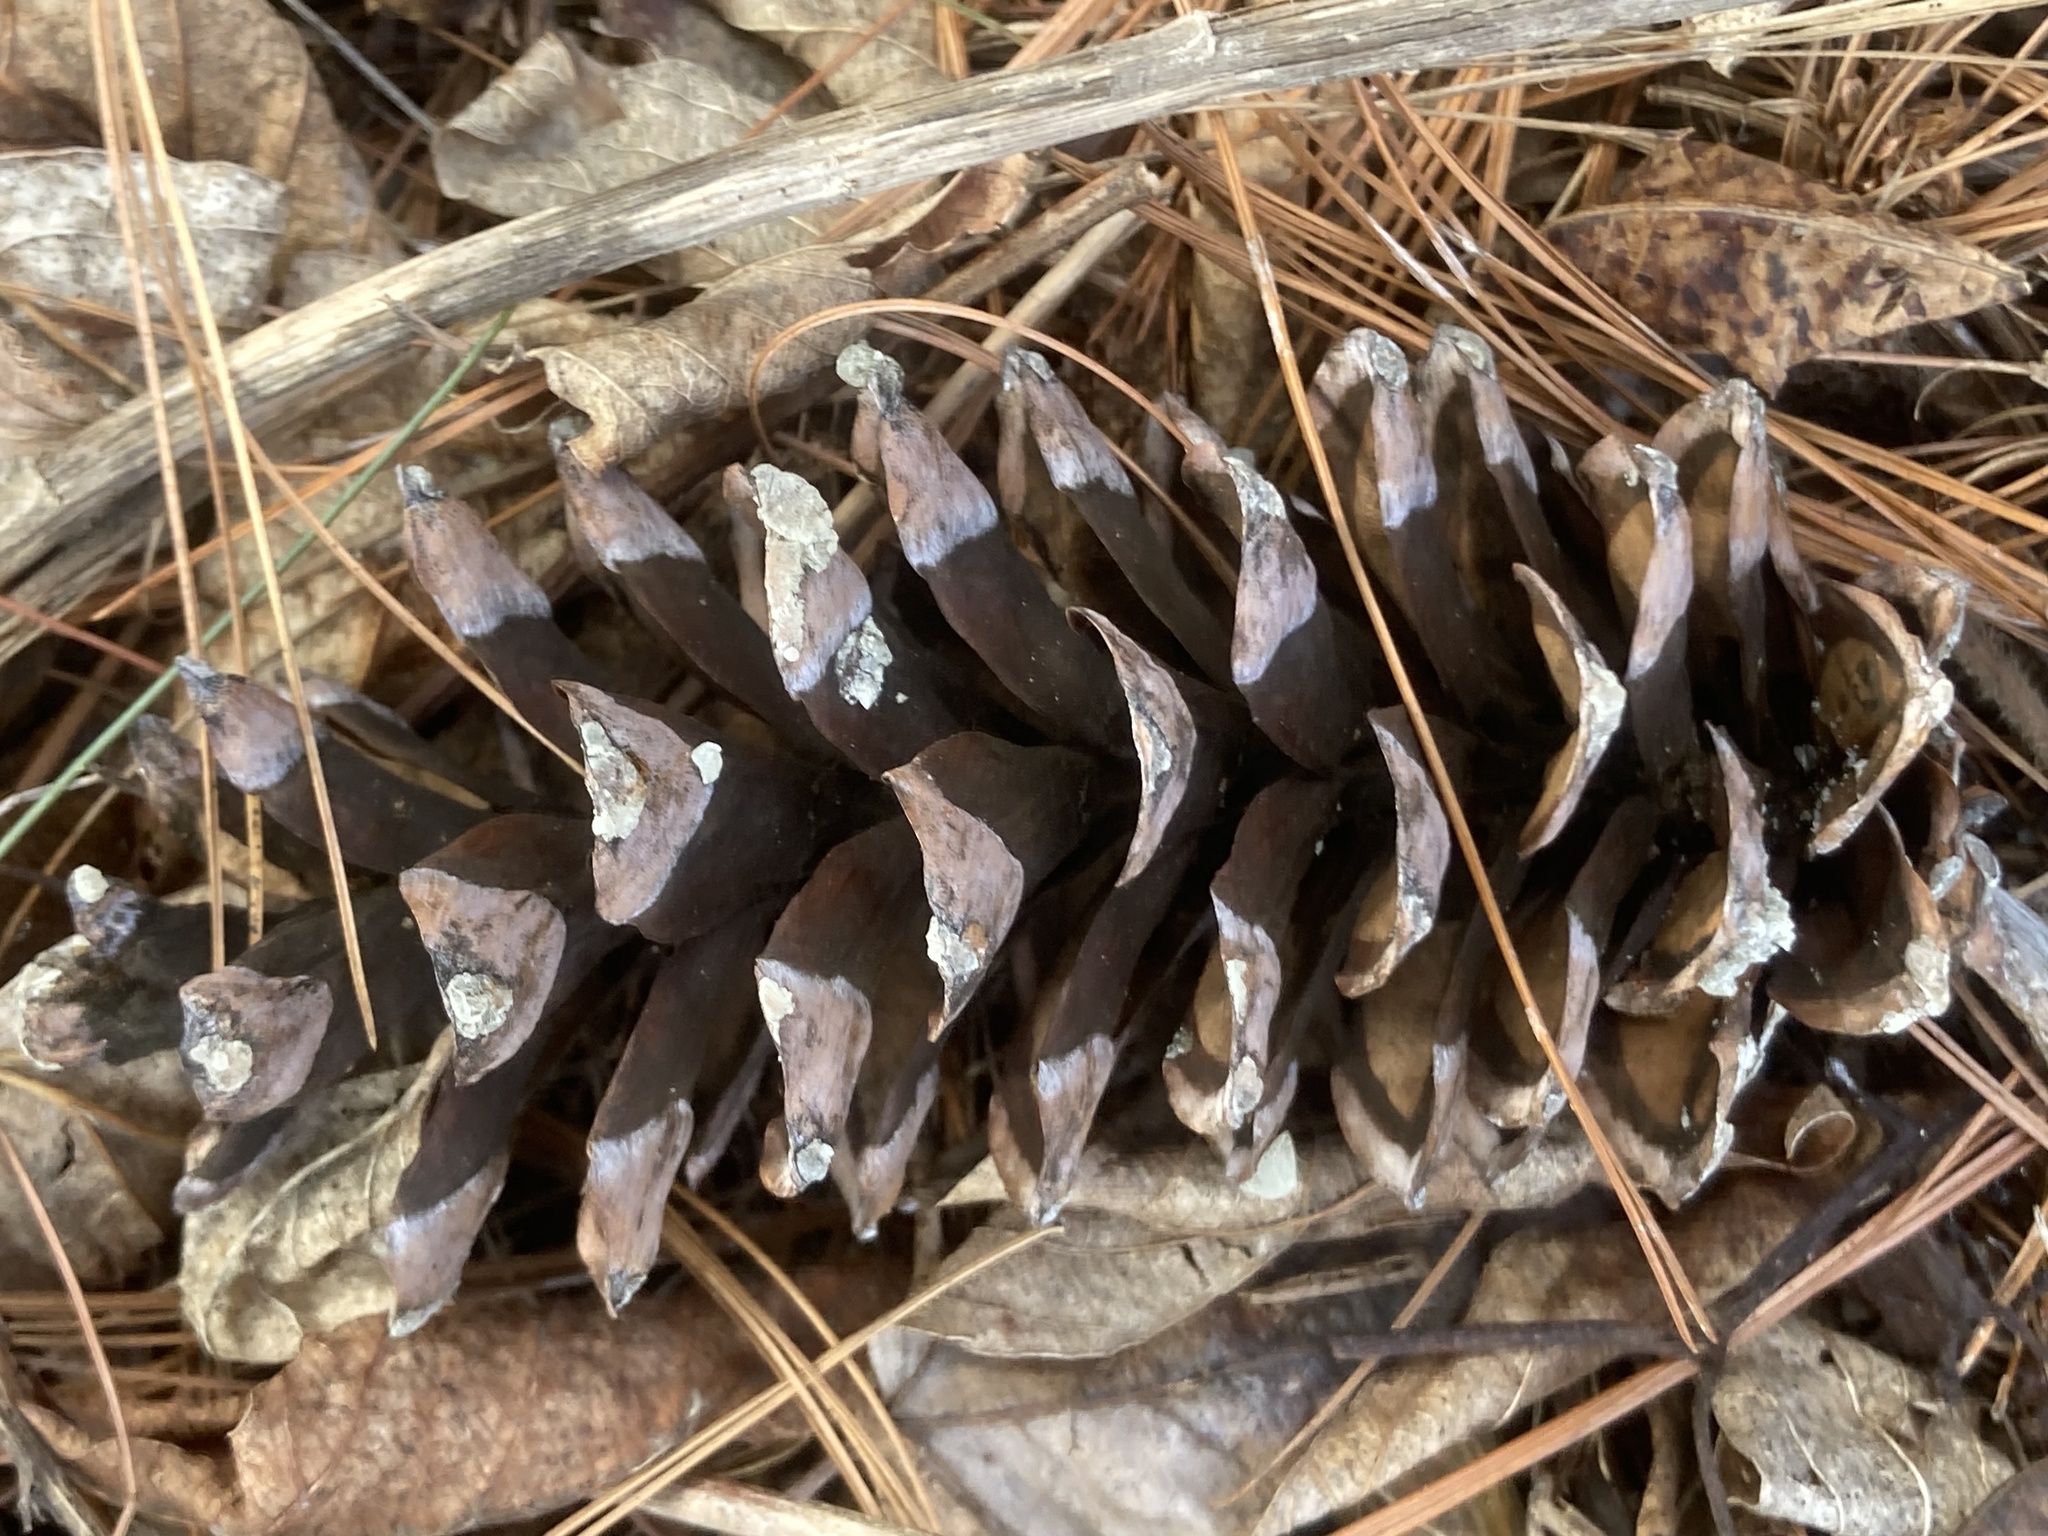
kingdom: Plantae
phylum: Tracheophyta
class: Pinopsida
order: Pinales
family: Pinaceae
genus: Pinus
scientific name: Pinus strobus
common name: Weymouth pine
